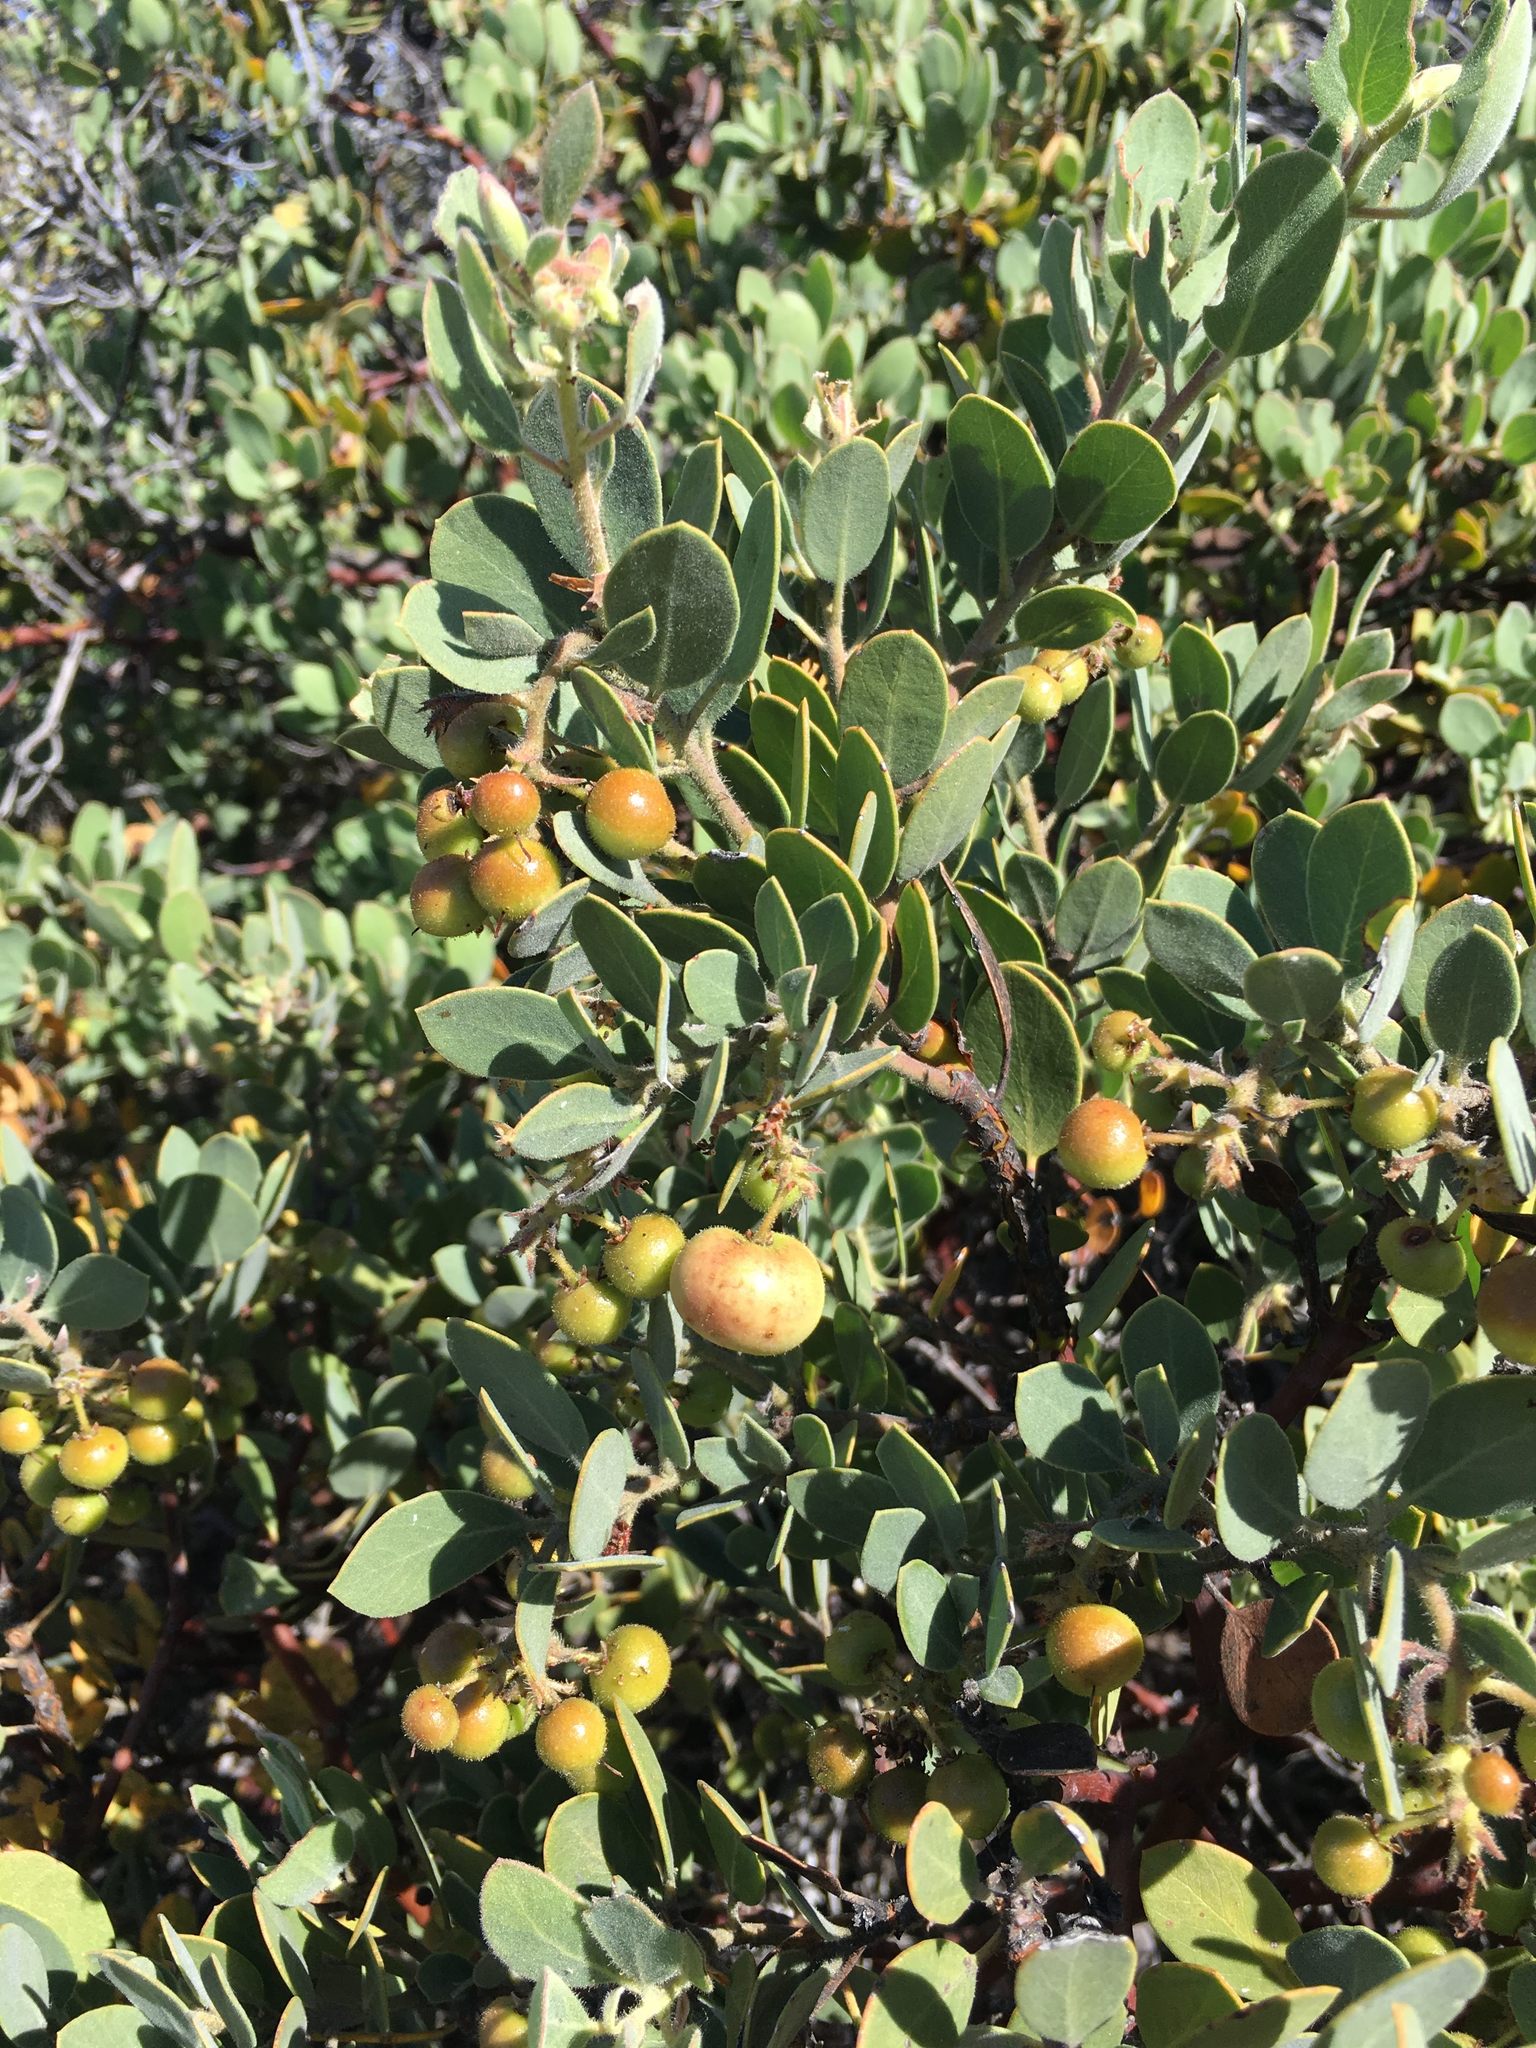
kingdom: Plantae
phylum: Tracheophyta
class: Magnoliopsida
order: Ericales
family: Ericaceae
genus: Arctostaphylos
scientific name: Arctostaphylos glandulosa
